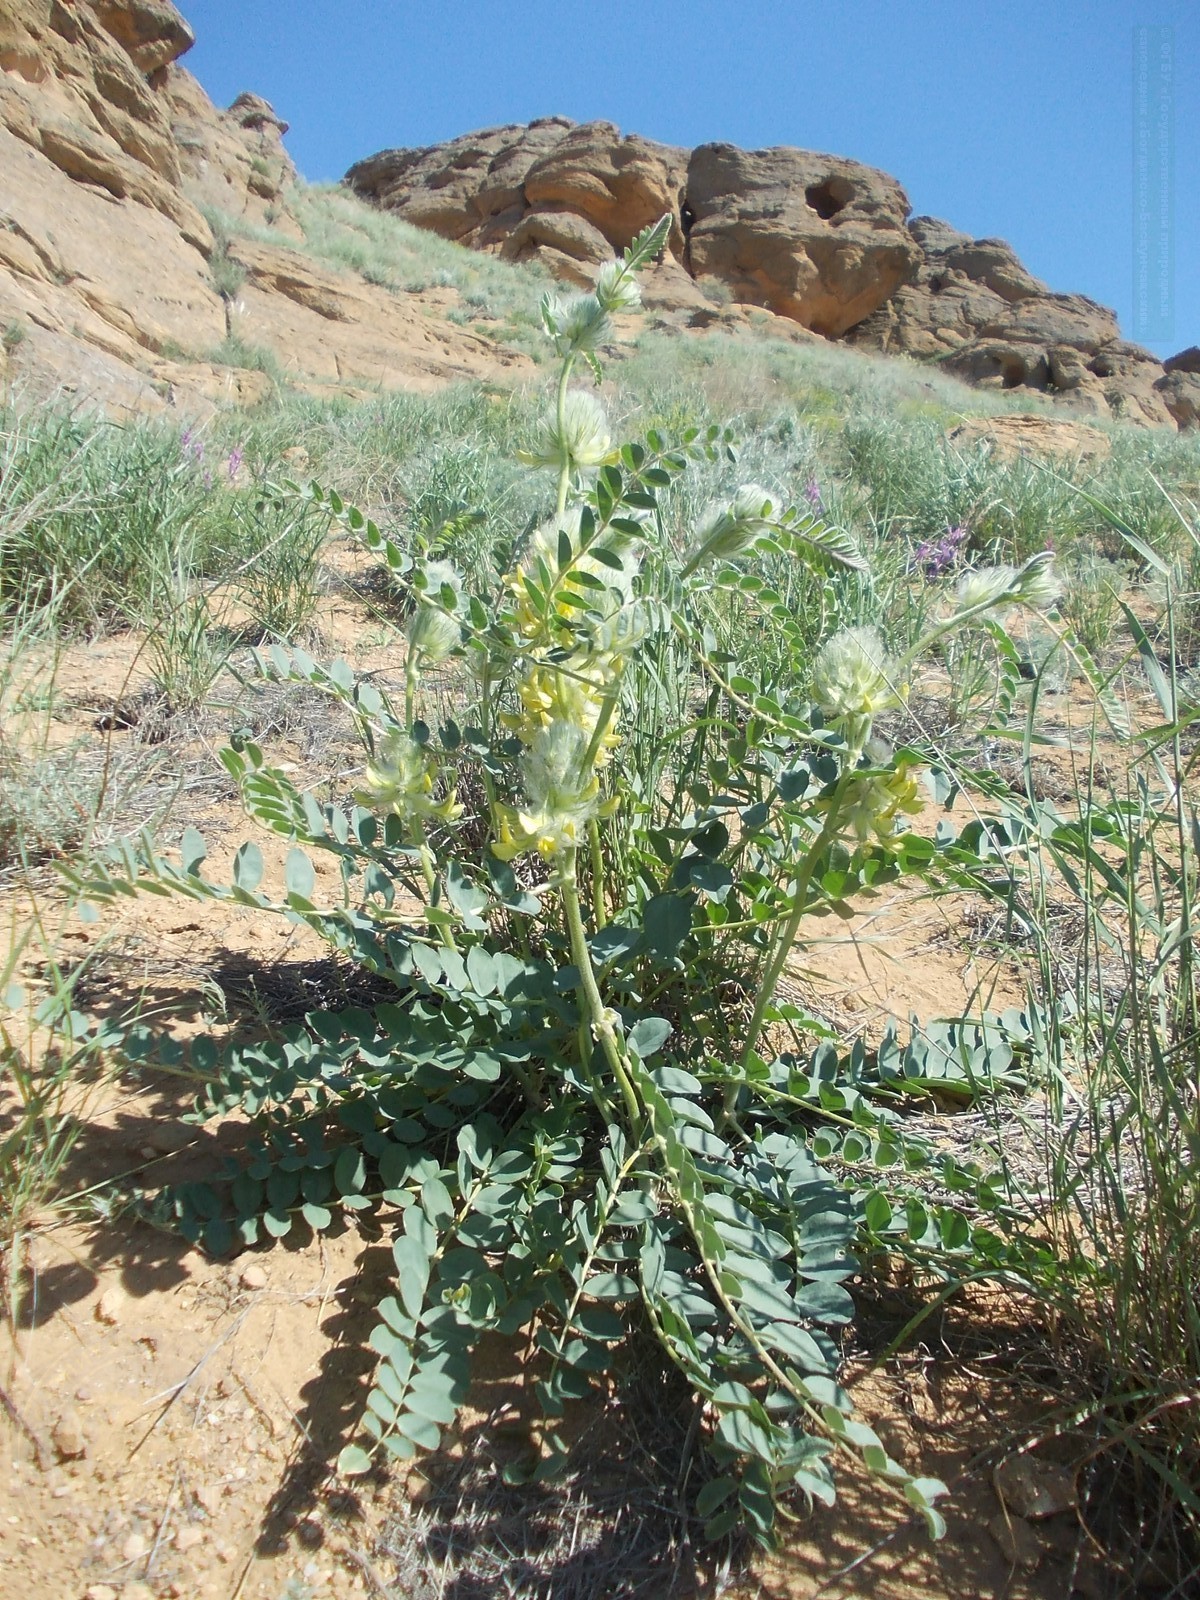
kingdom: Plantae
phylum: Tracheophyta
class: Magnoliopsida
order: Fabales
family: Fabaceae
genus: Astragalus
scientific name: Astragalus vulpinus
